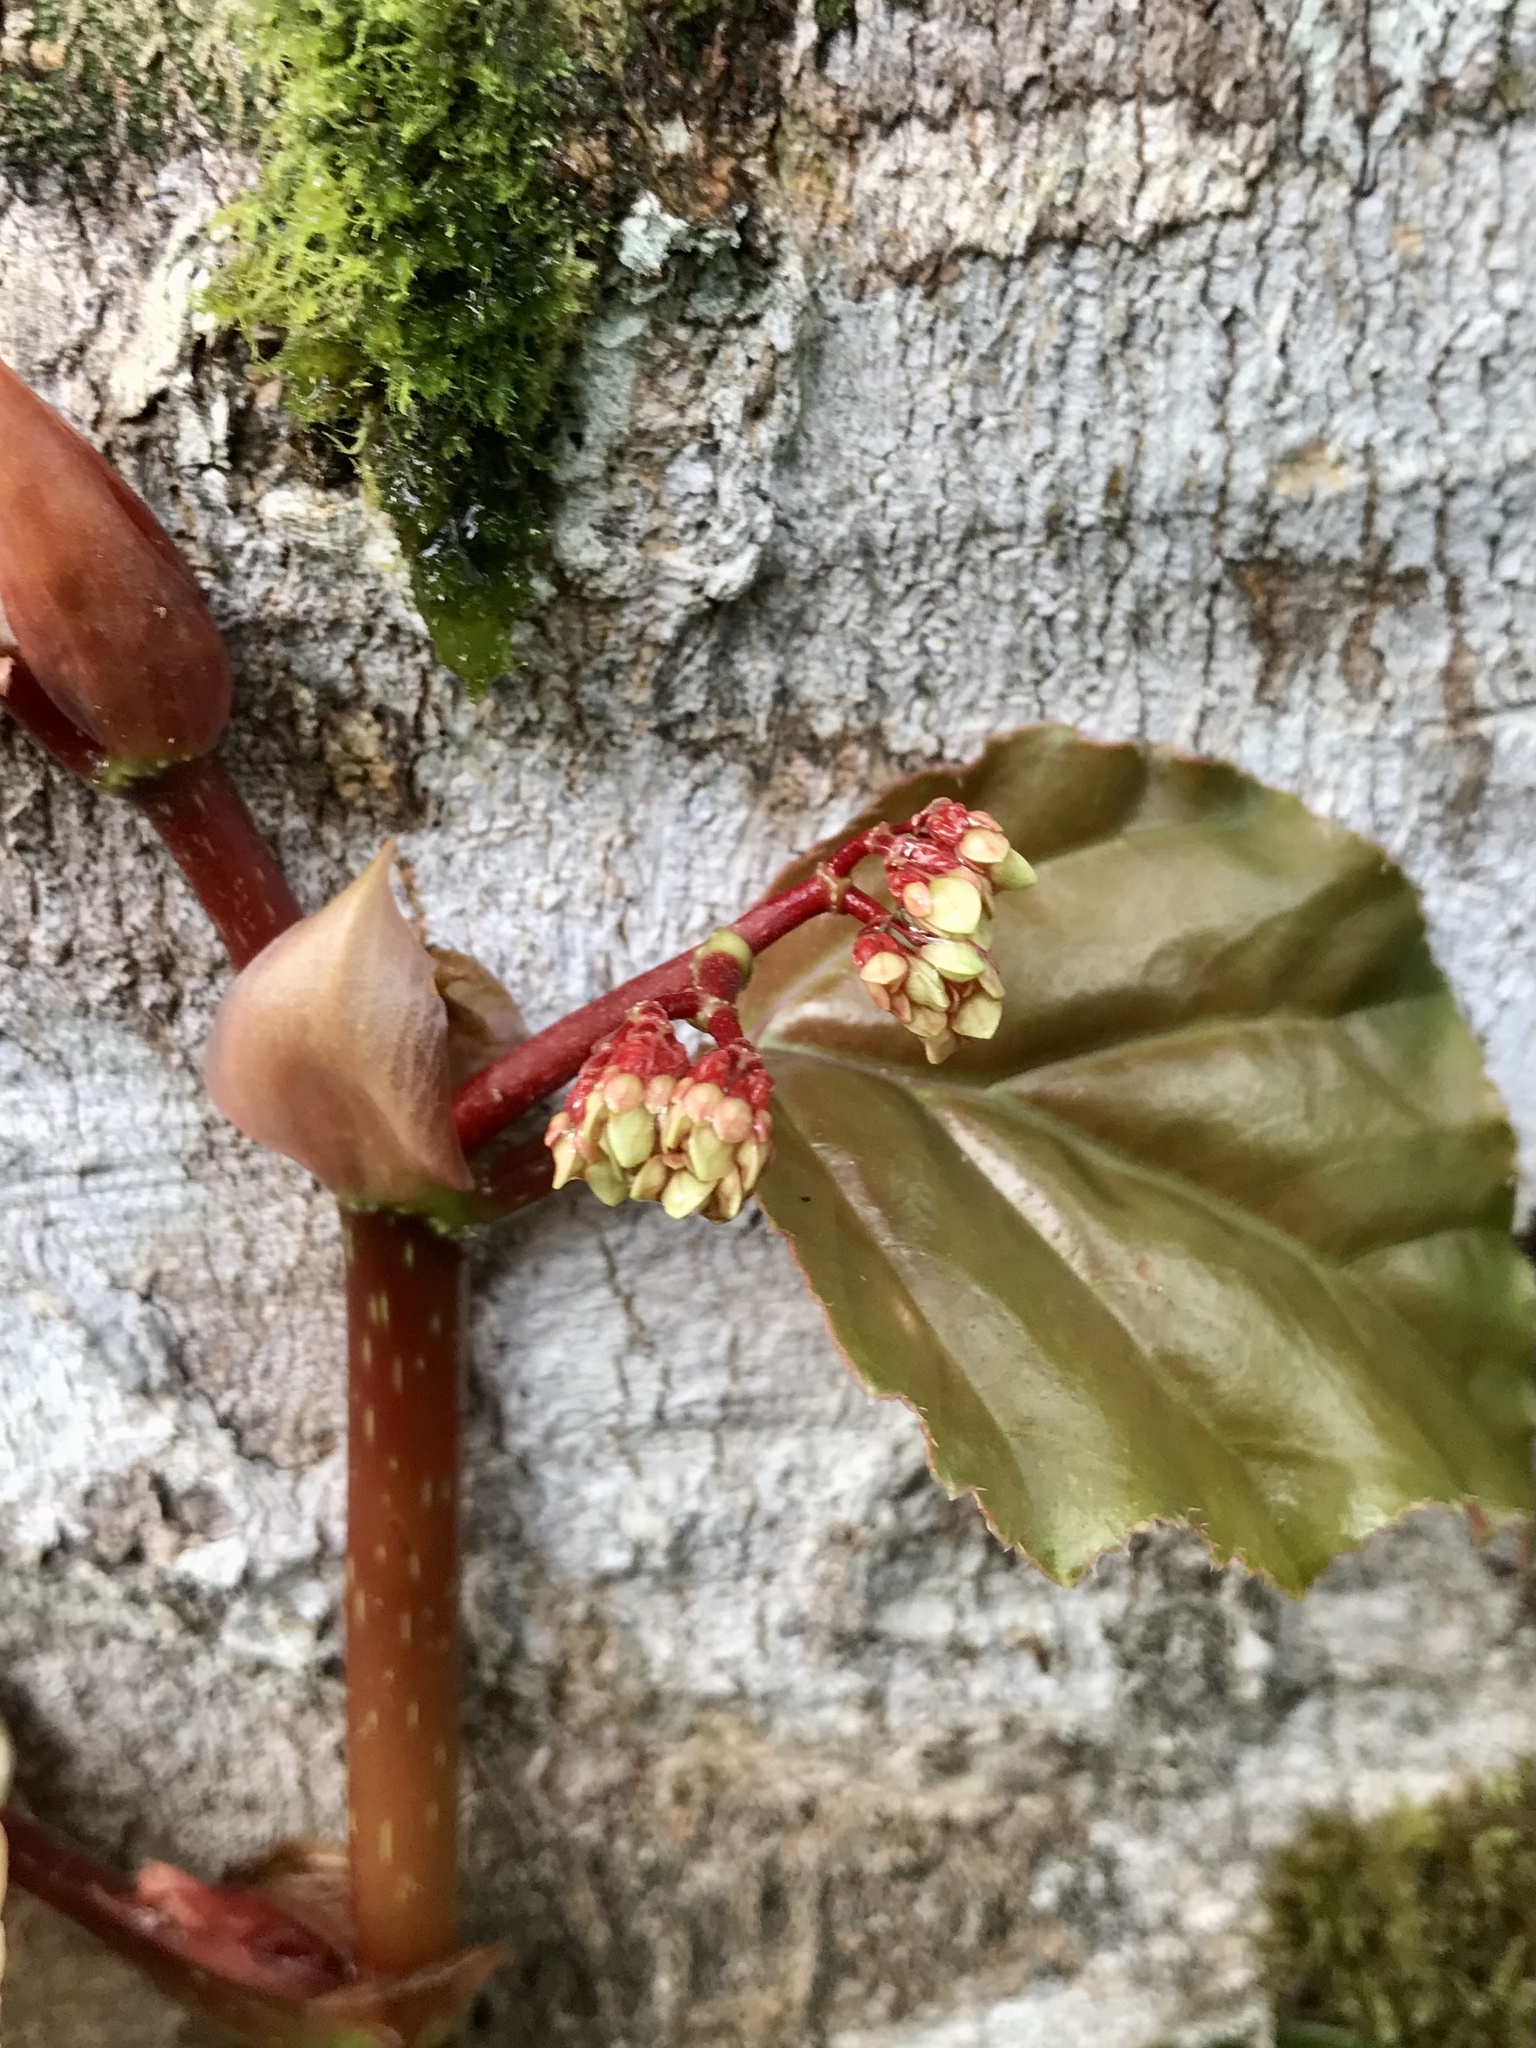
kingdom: Plantae
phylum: Tracheophyta
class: Magnoliopsida
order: Cucurbitales
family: Begoniaceae
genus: Begonia
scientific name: Begonia glabra
